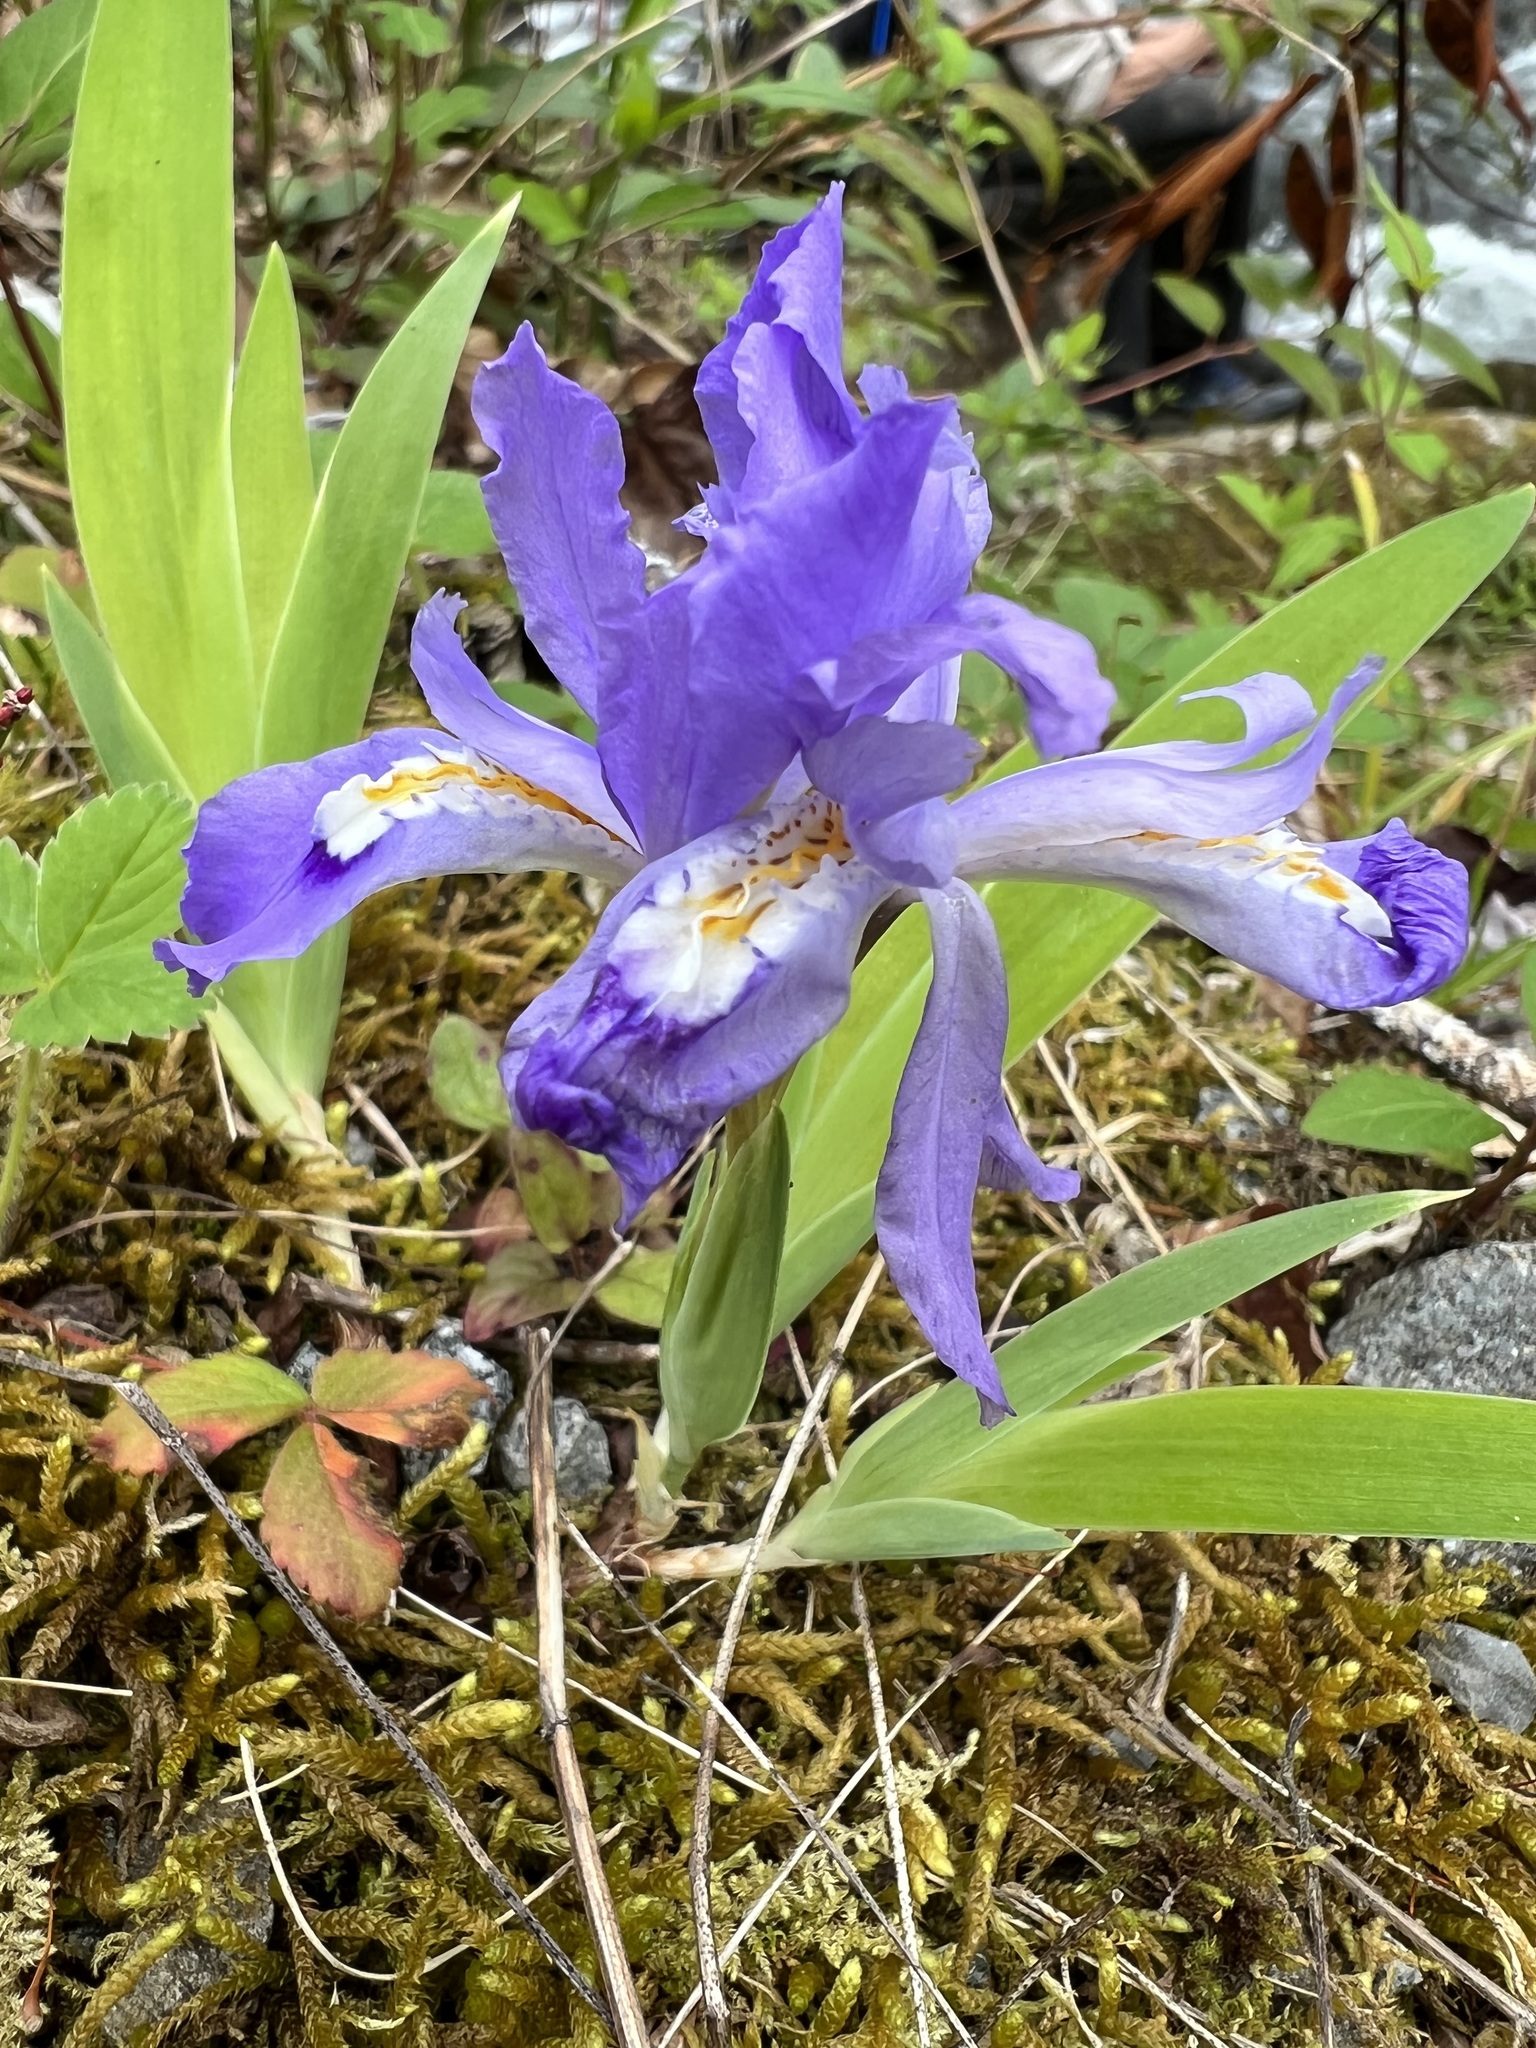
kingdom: Plantae
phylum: Tracheophyta
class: Liliopsida
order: Asparagales
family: Iridaceae
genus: Iris
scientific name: Iris cristata
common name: Crested iris
